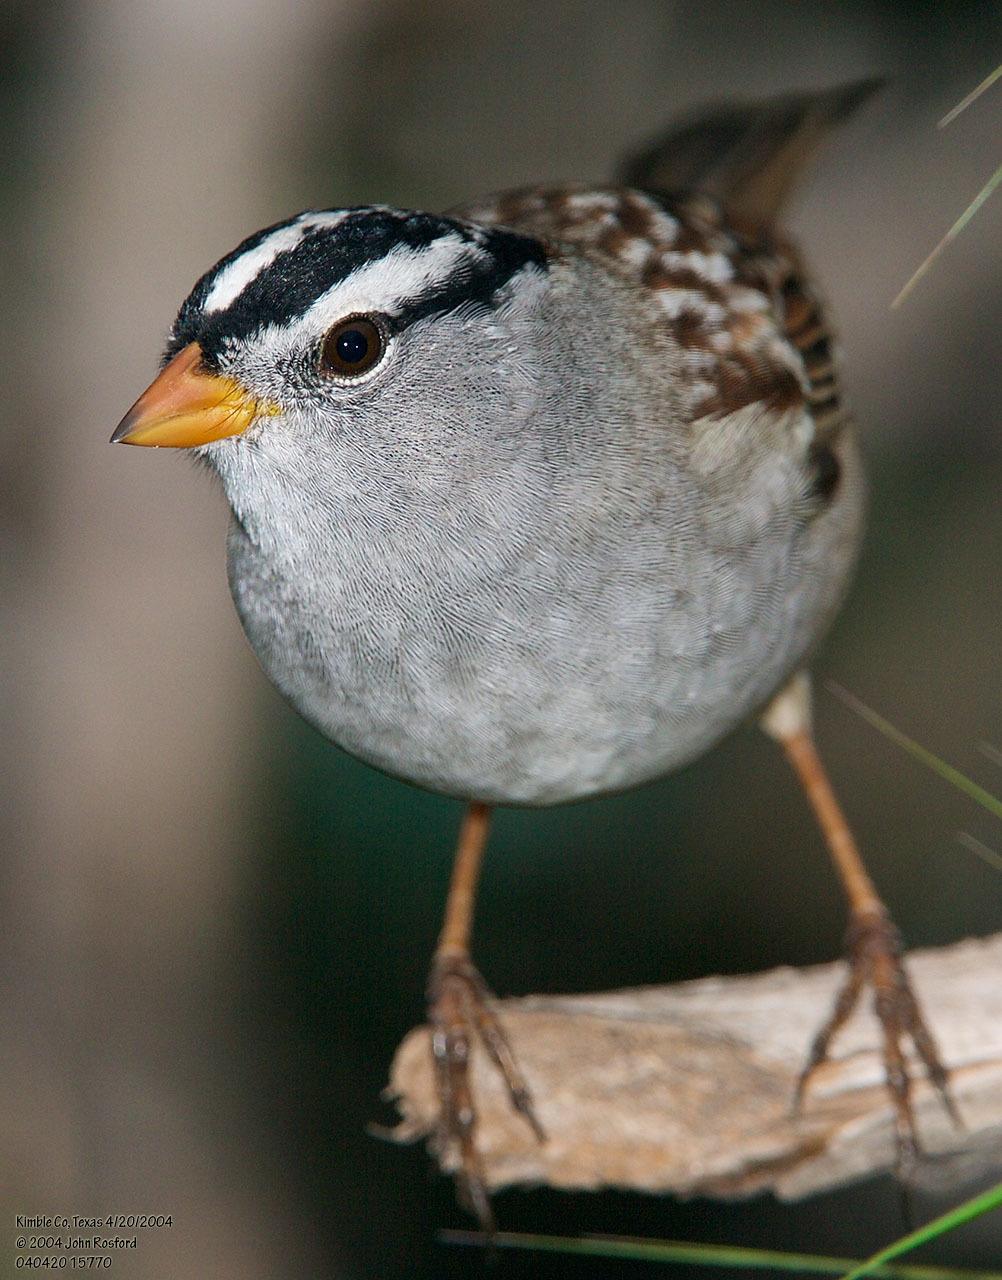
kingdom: Animalia
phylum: Chordata
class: Aves
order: Passeriformes
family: Passerellidae
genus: Zonotrichia
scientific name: Zonotrichia leucophrys
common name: White-crowned sparrow
